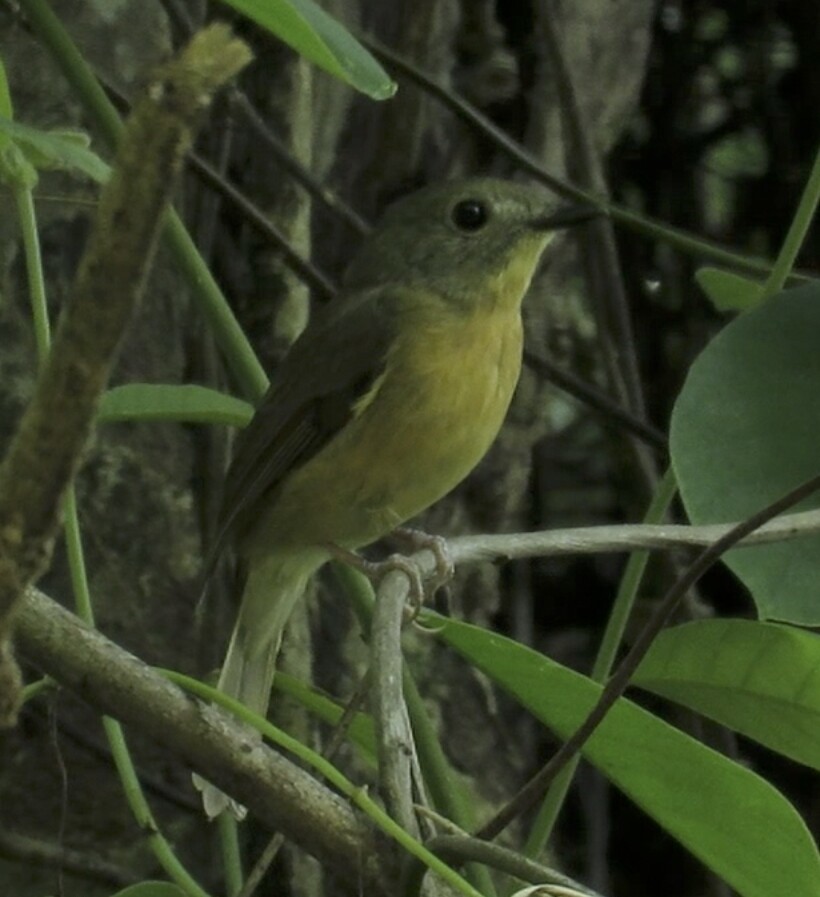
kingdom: Animalia
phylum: Chordata
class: Aves
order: Passeriformes
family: Muscicapidae
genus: Cyornis
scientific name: Cyornis poliogenys
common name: Pale-chinned blue flycatcher
